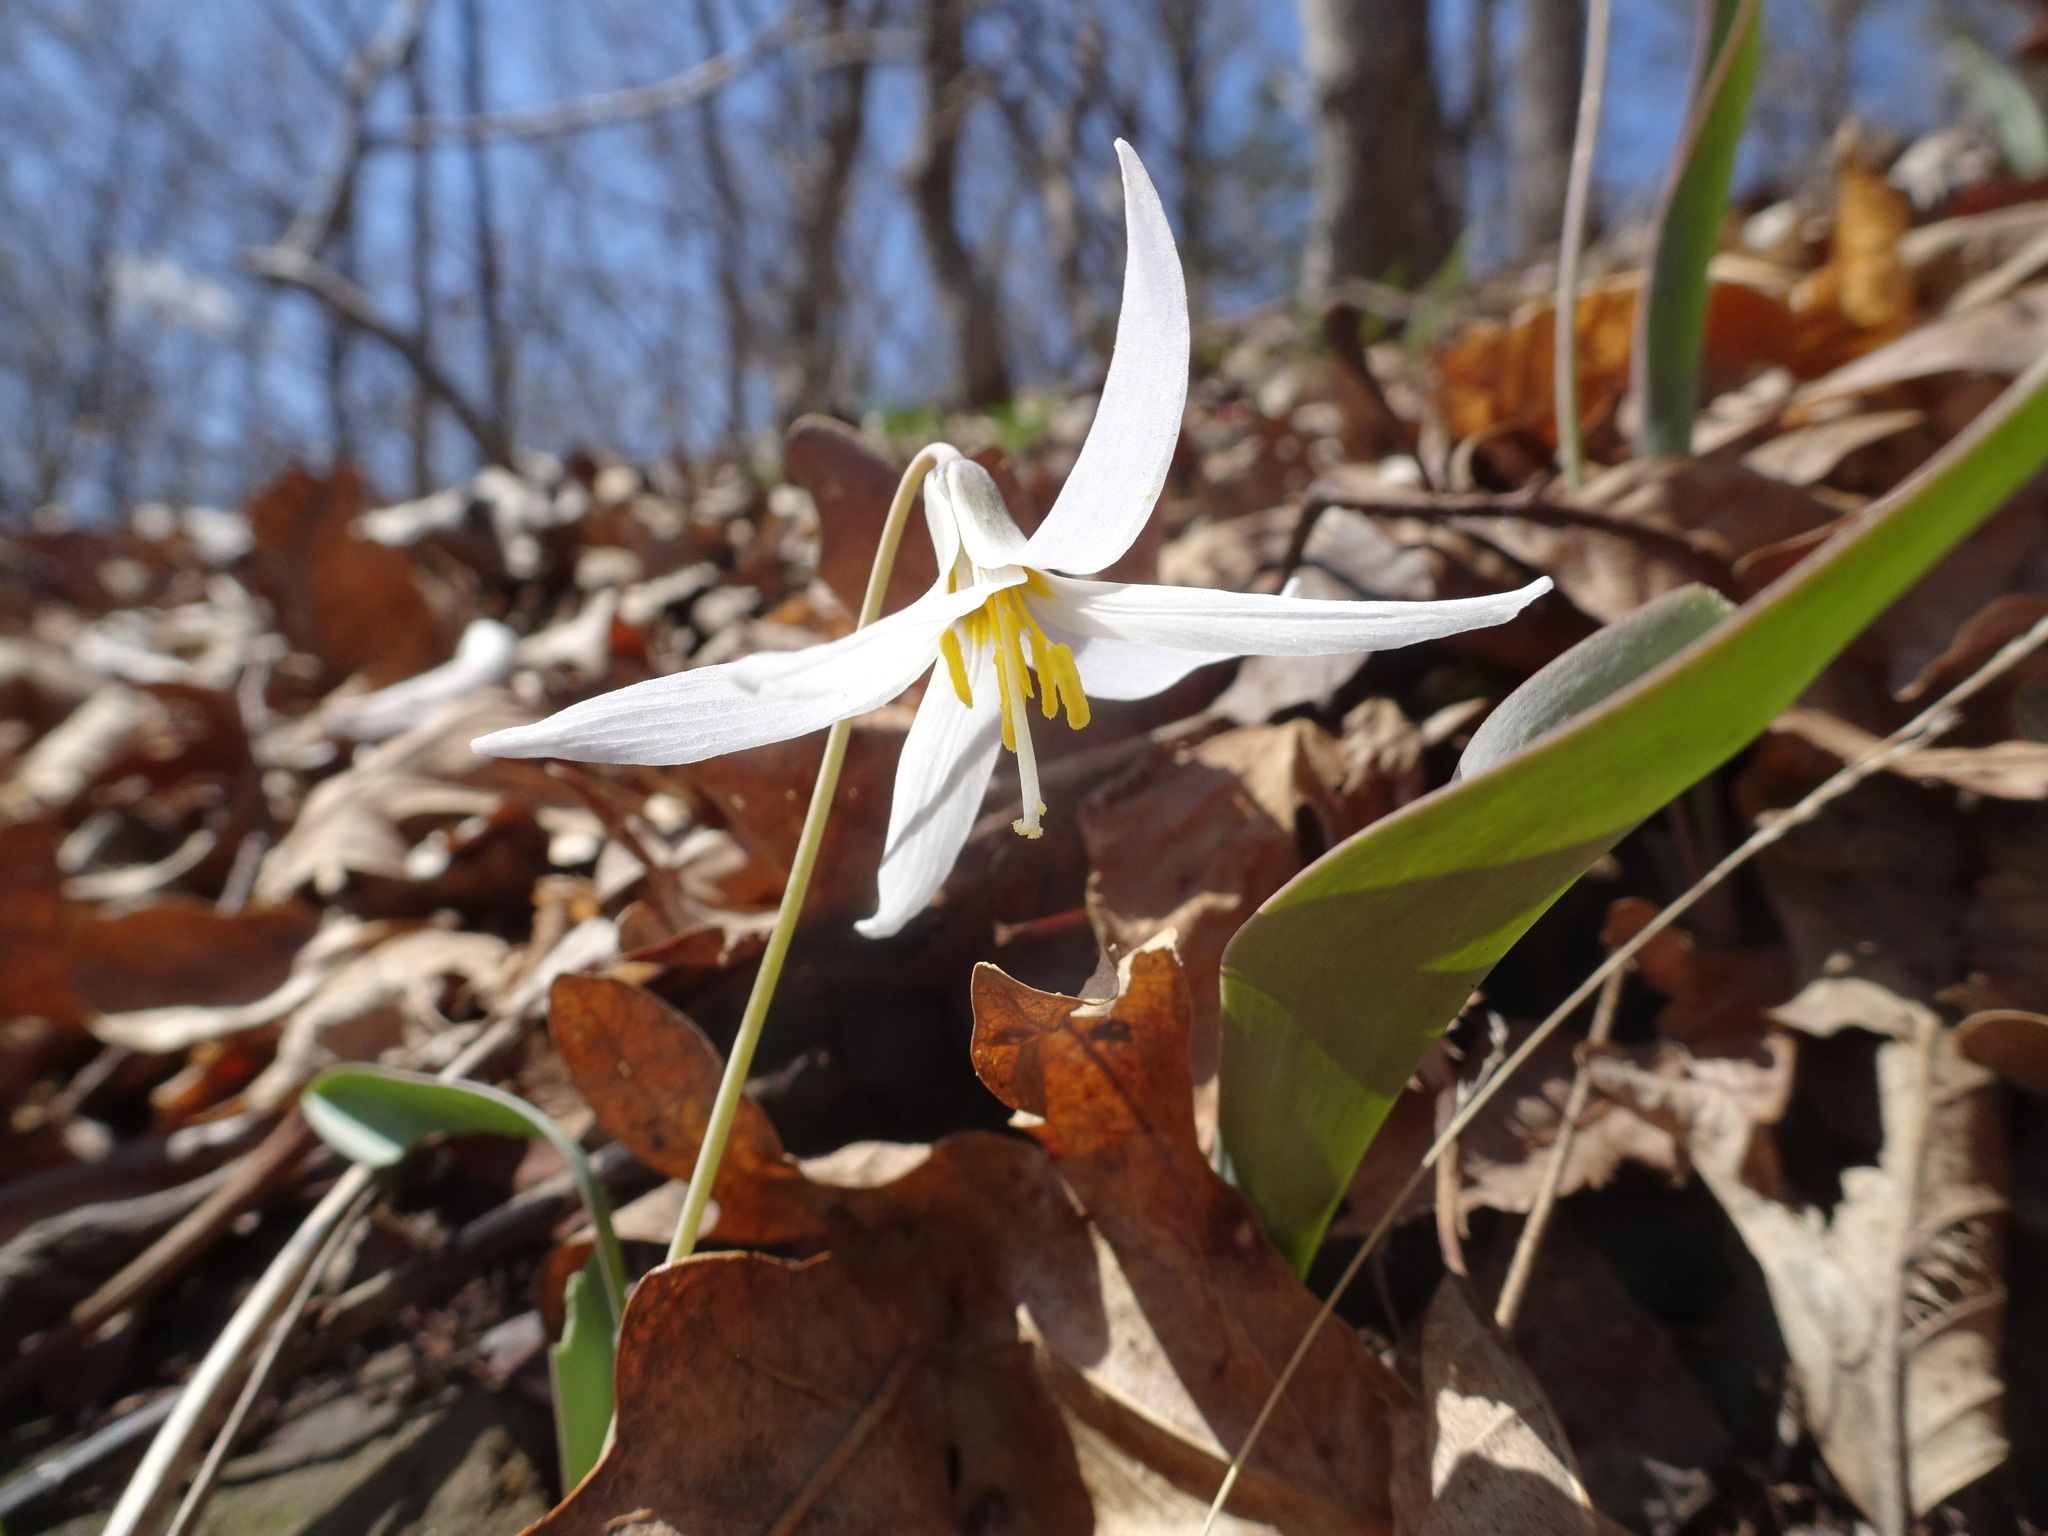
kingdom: Plantae
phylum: Tracheophyta
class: Liliopsida
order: Liliales
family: Liliaceae
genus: Erythronium
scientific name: Erythronium mesochoreum
